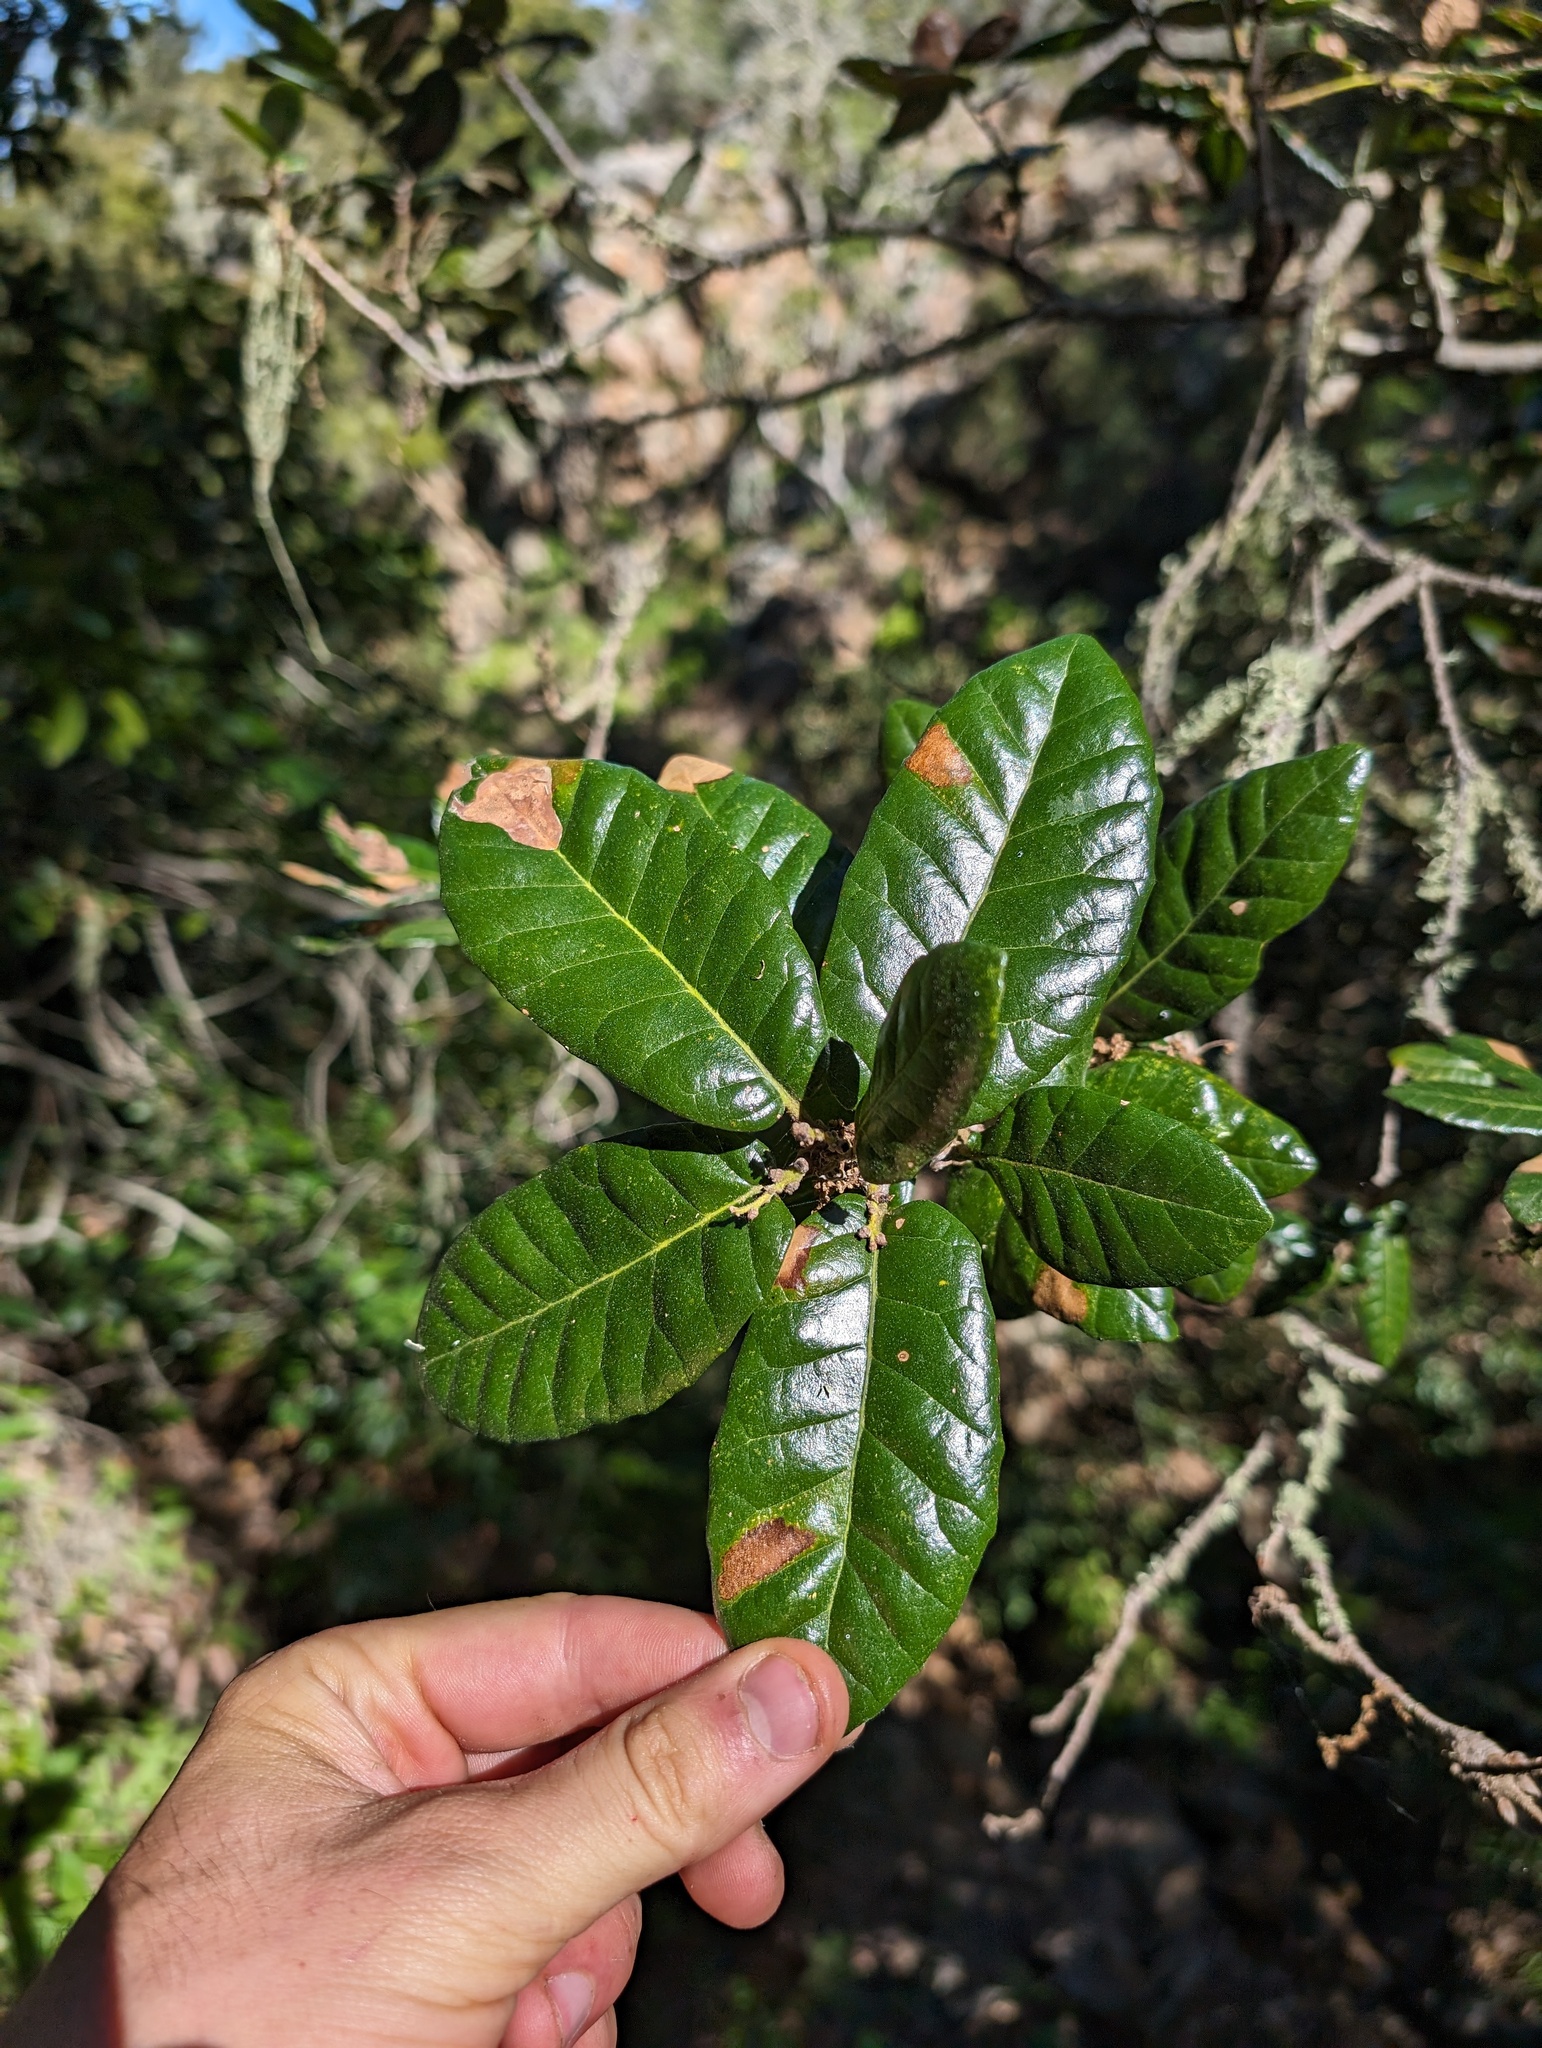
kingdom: Plantae
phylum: Tracheophyta
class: Magnoliopsida
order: Fagales
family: Fagaceae
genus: Quercus
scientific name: Quercus tomentella
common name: Island oak
